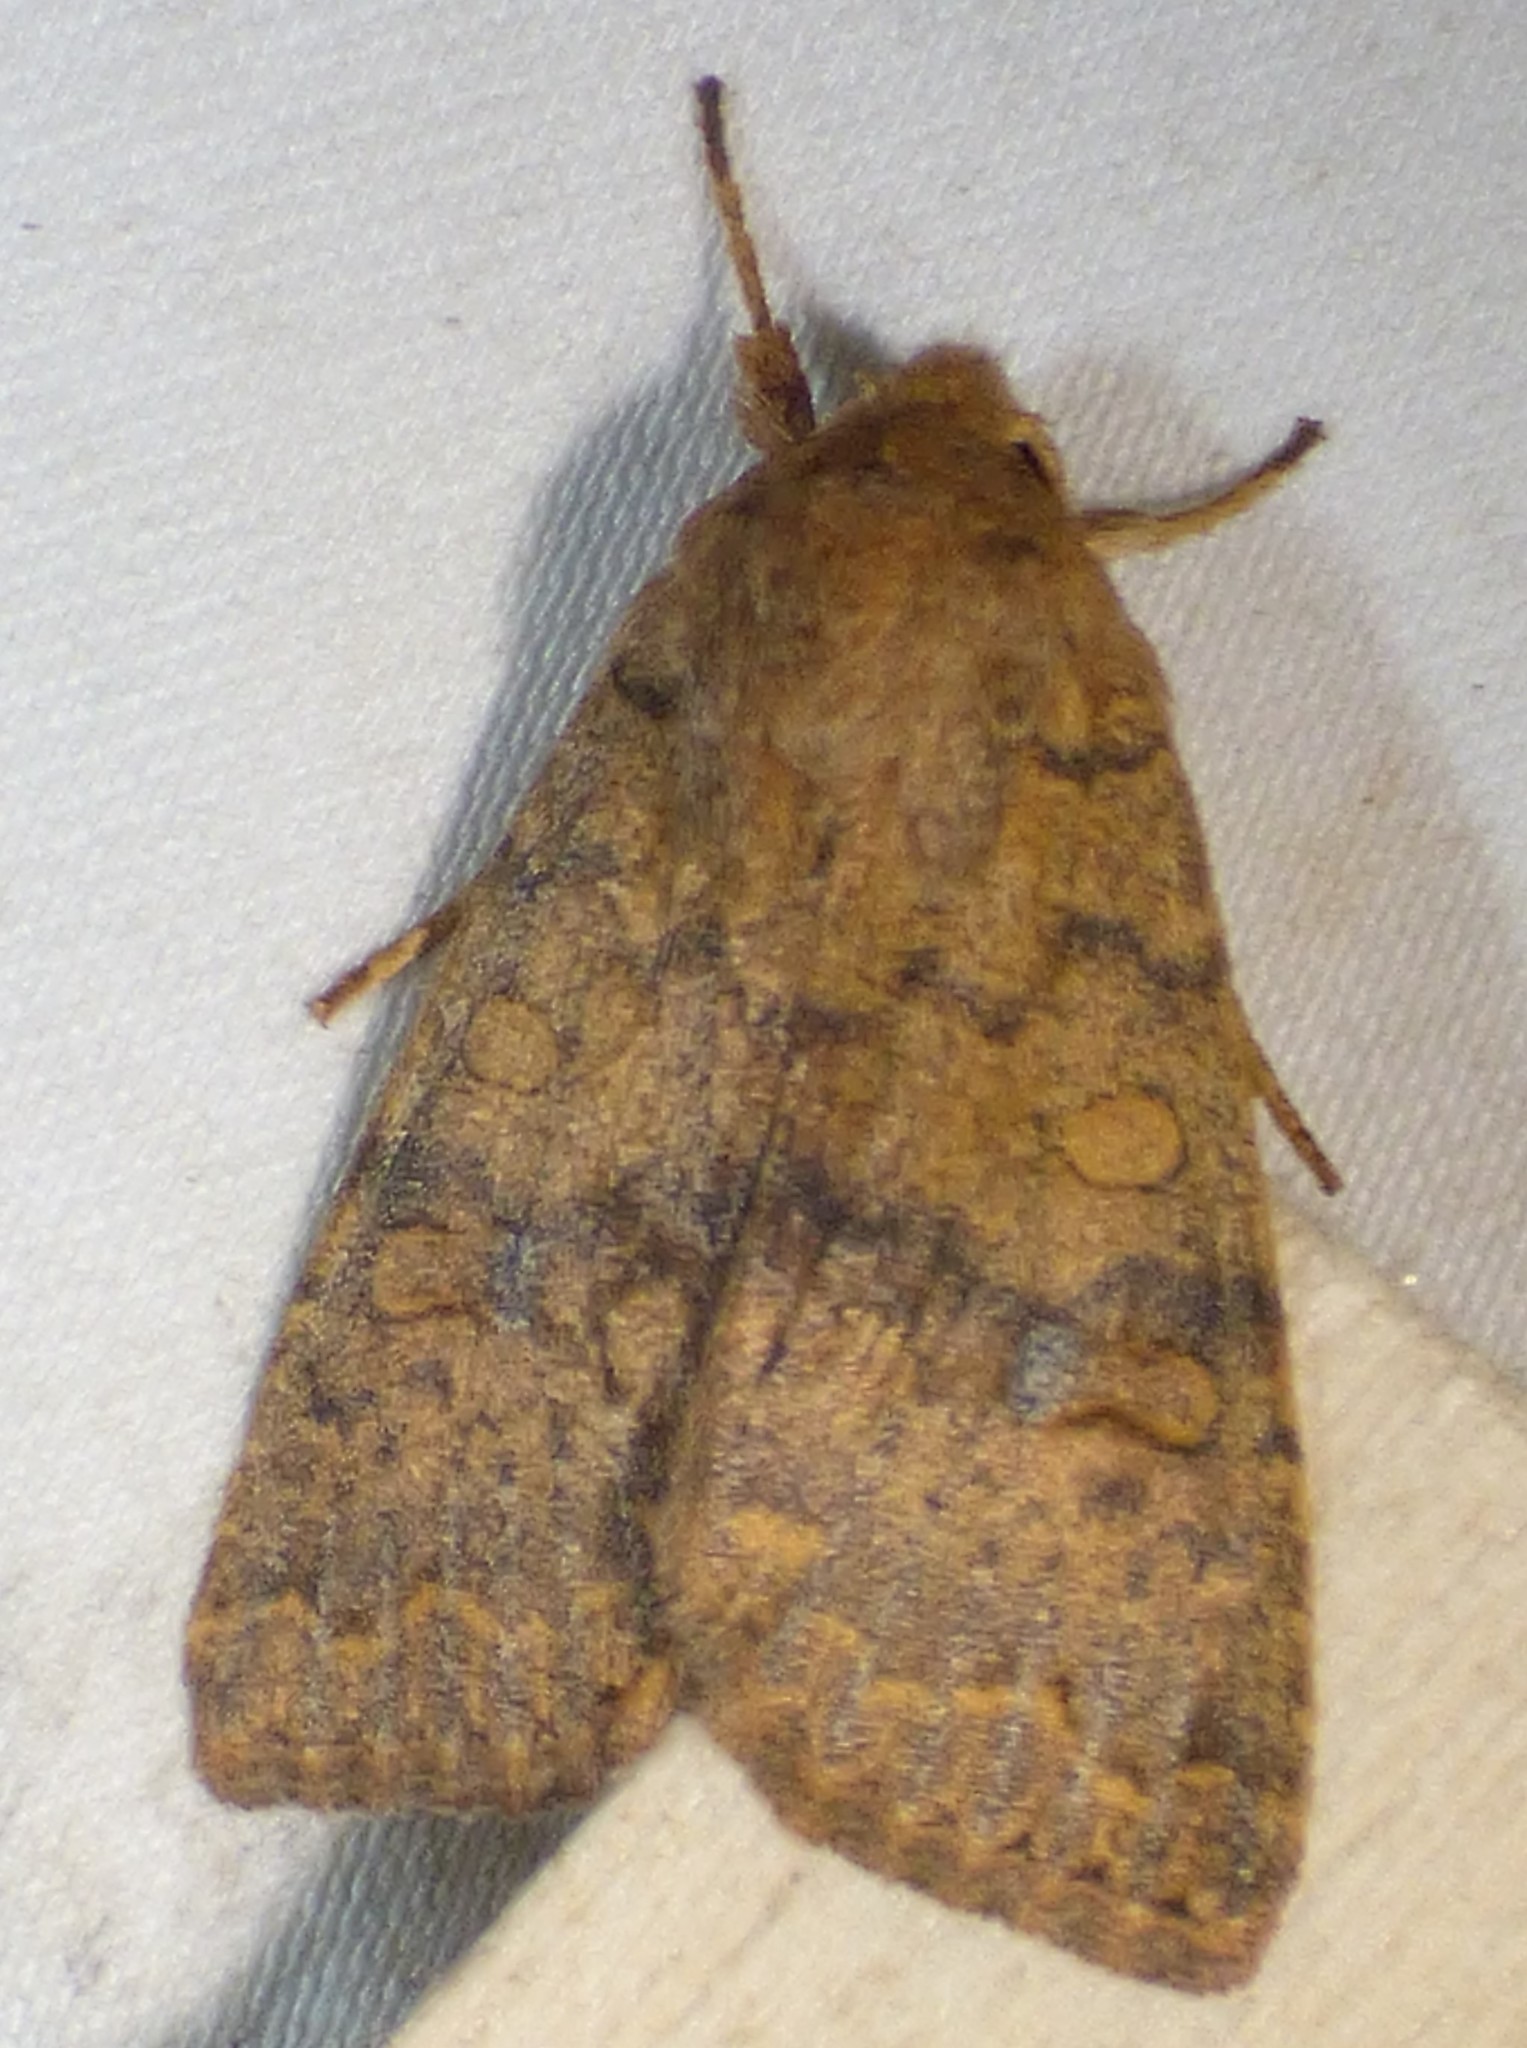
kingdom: Animalia
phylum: Arthropoda
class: Insecta
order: Lepidoptera
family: Noctuidae
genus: Agrochola
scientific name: Agrochola bicolorago
